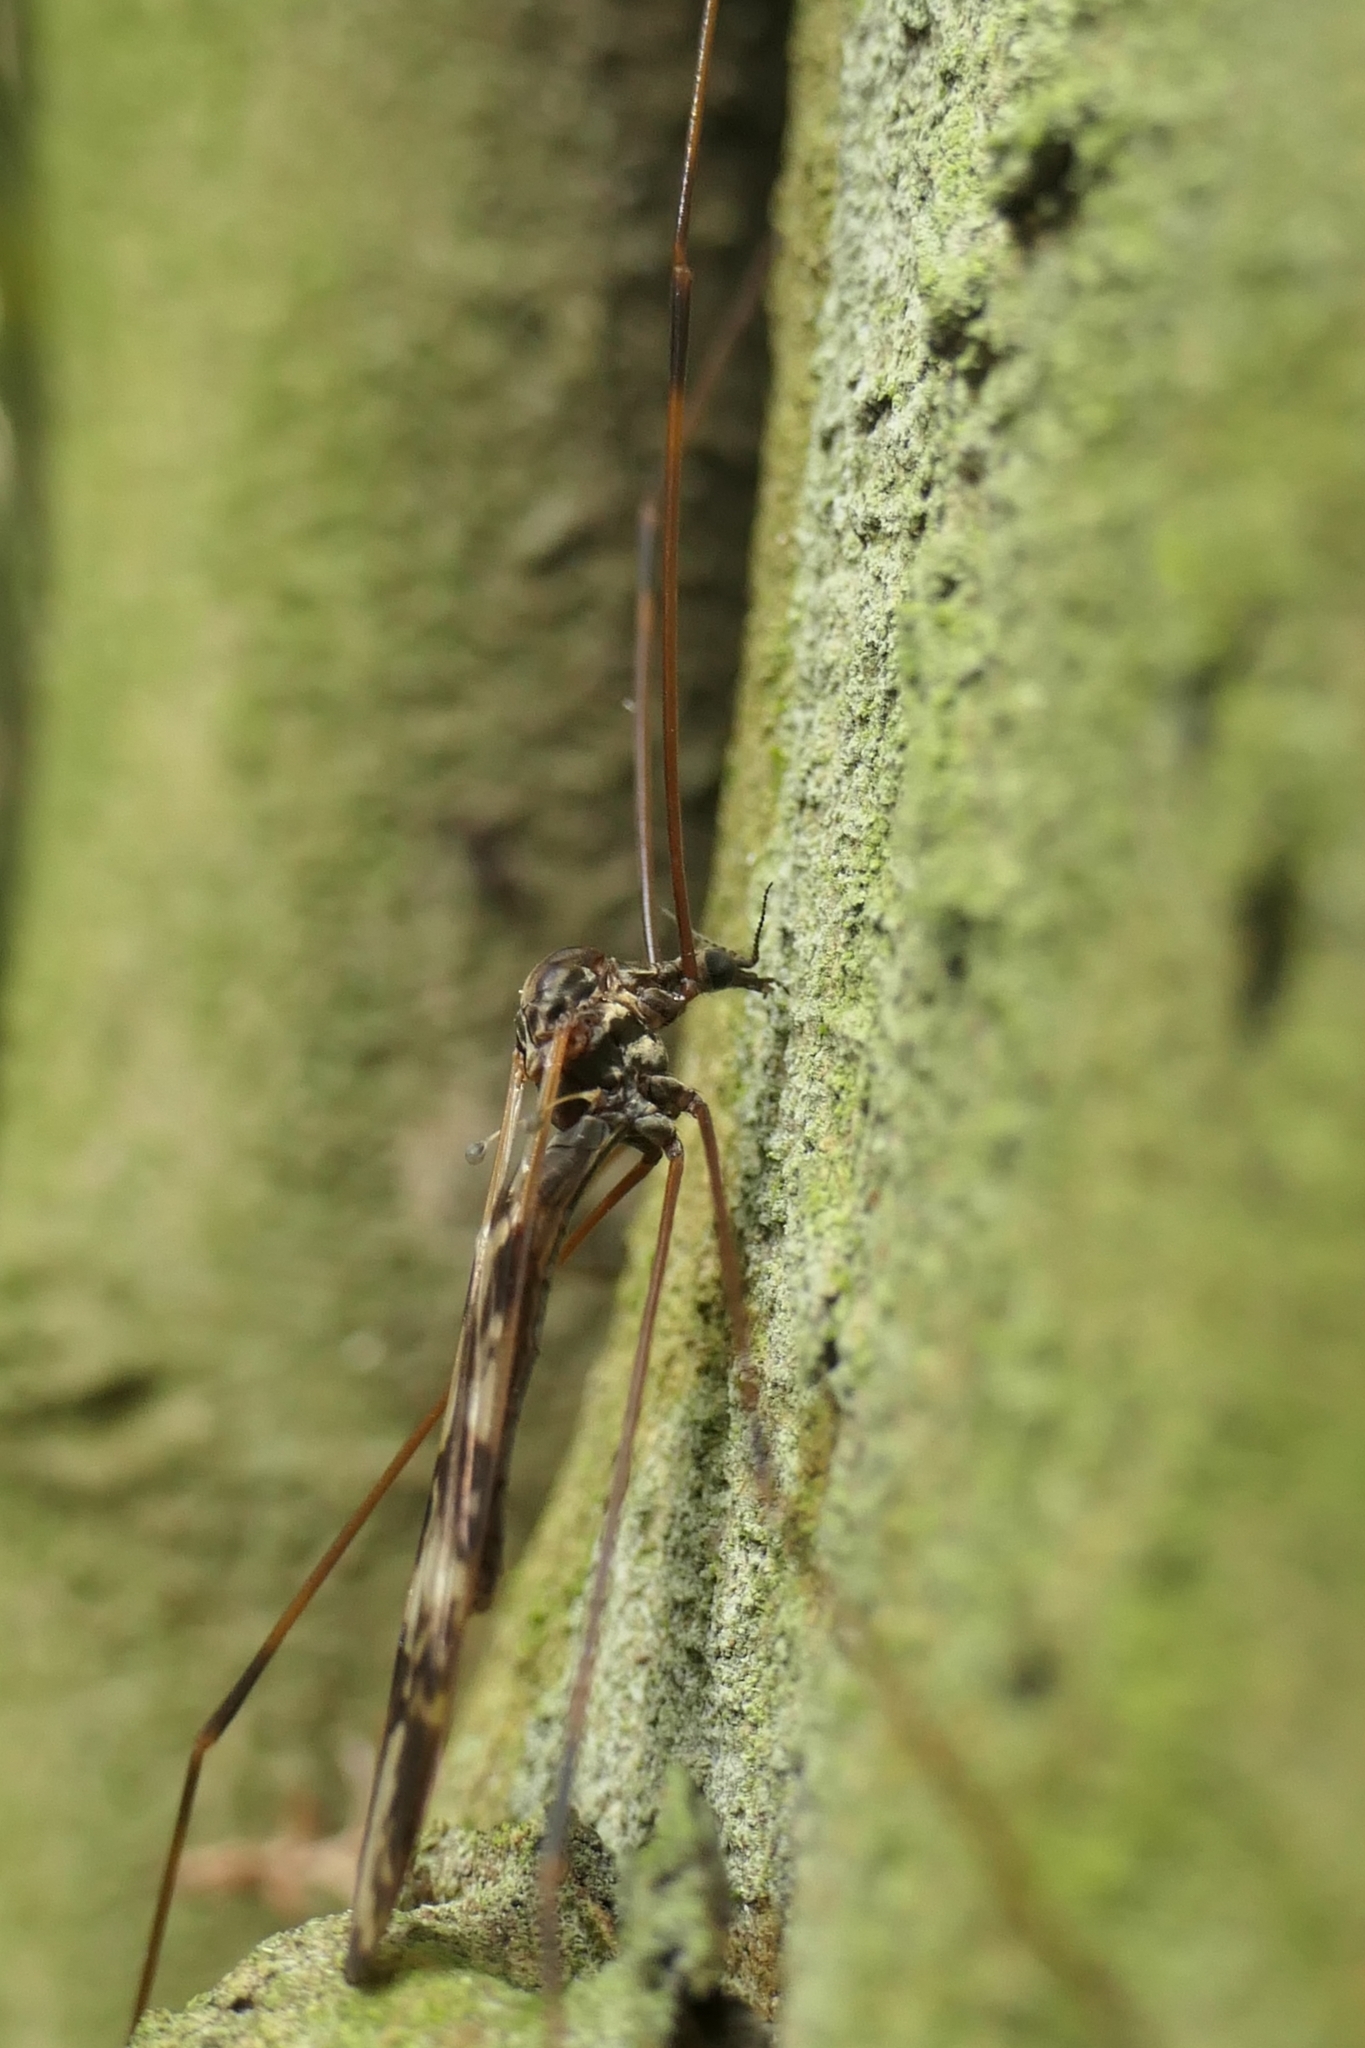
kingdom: Animalia
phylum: Arthropoda
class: Insecta
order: Diptera
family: Limoniidae
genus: Discobola
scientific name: Discobola dohrni
